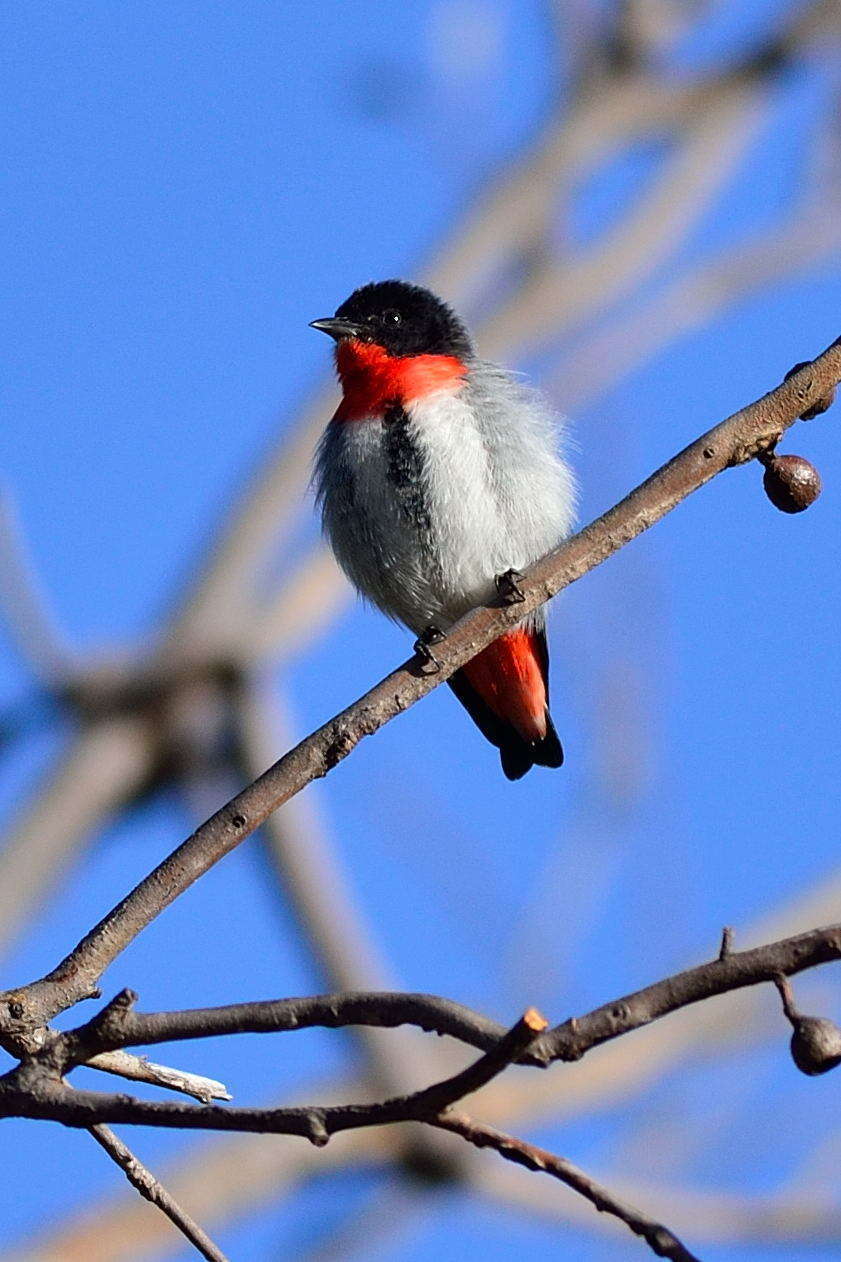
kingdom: Animalia
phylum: Chordata
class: Aves
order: Passeriformes
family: Dicaeidae
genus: Dicaeum
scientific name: Dicaeum hirundinaceum
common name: Mistletoebird
